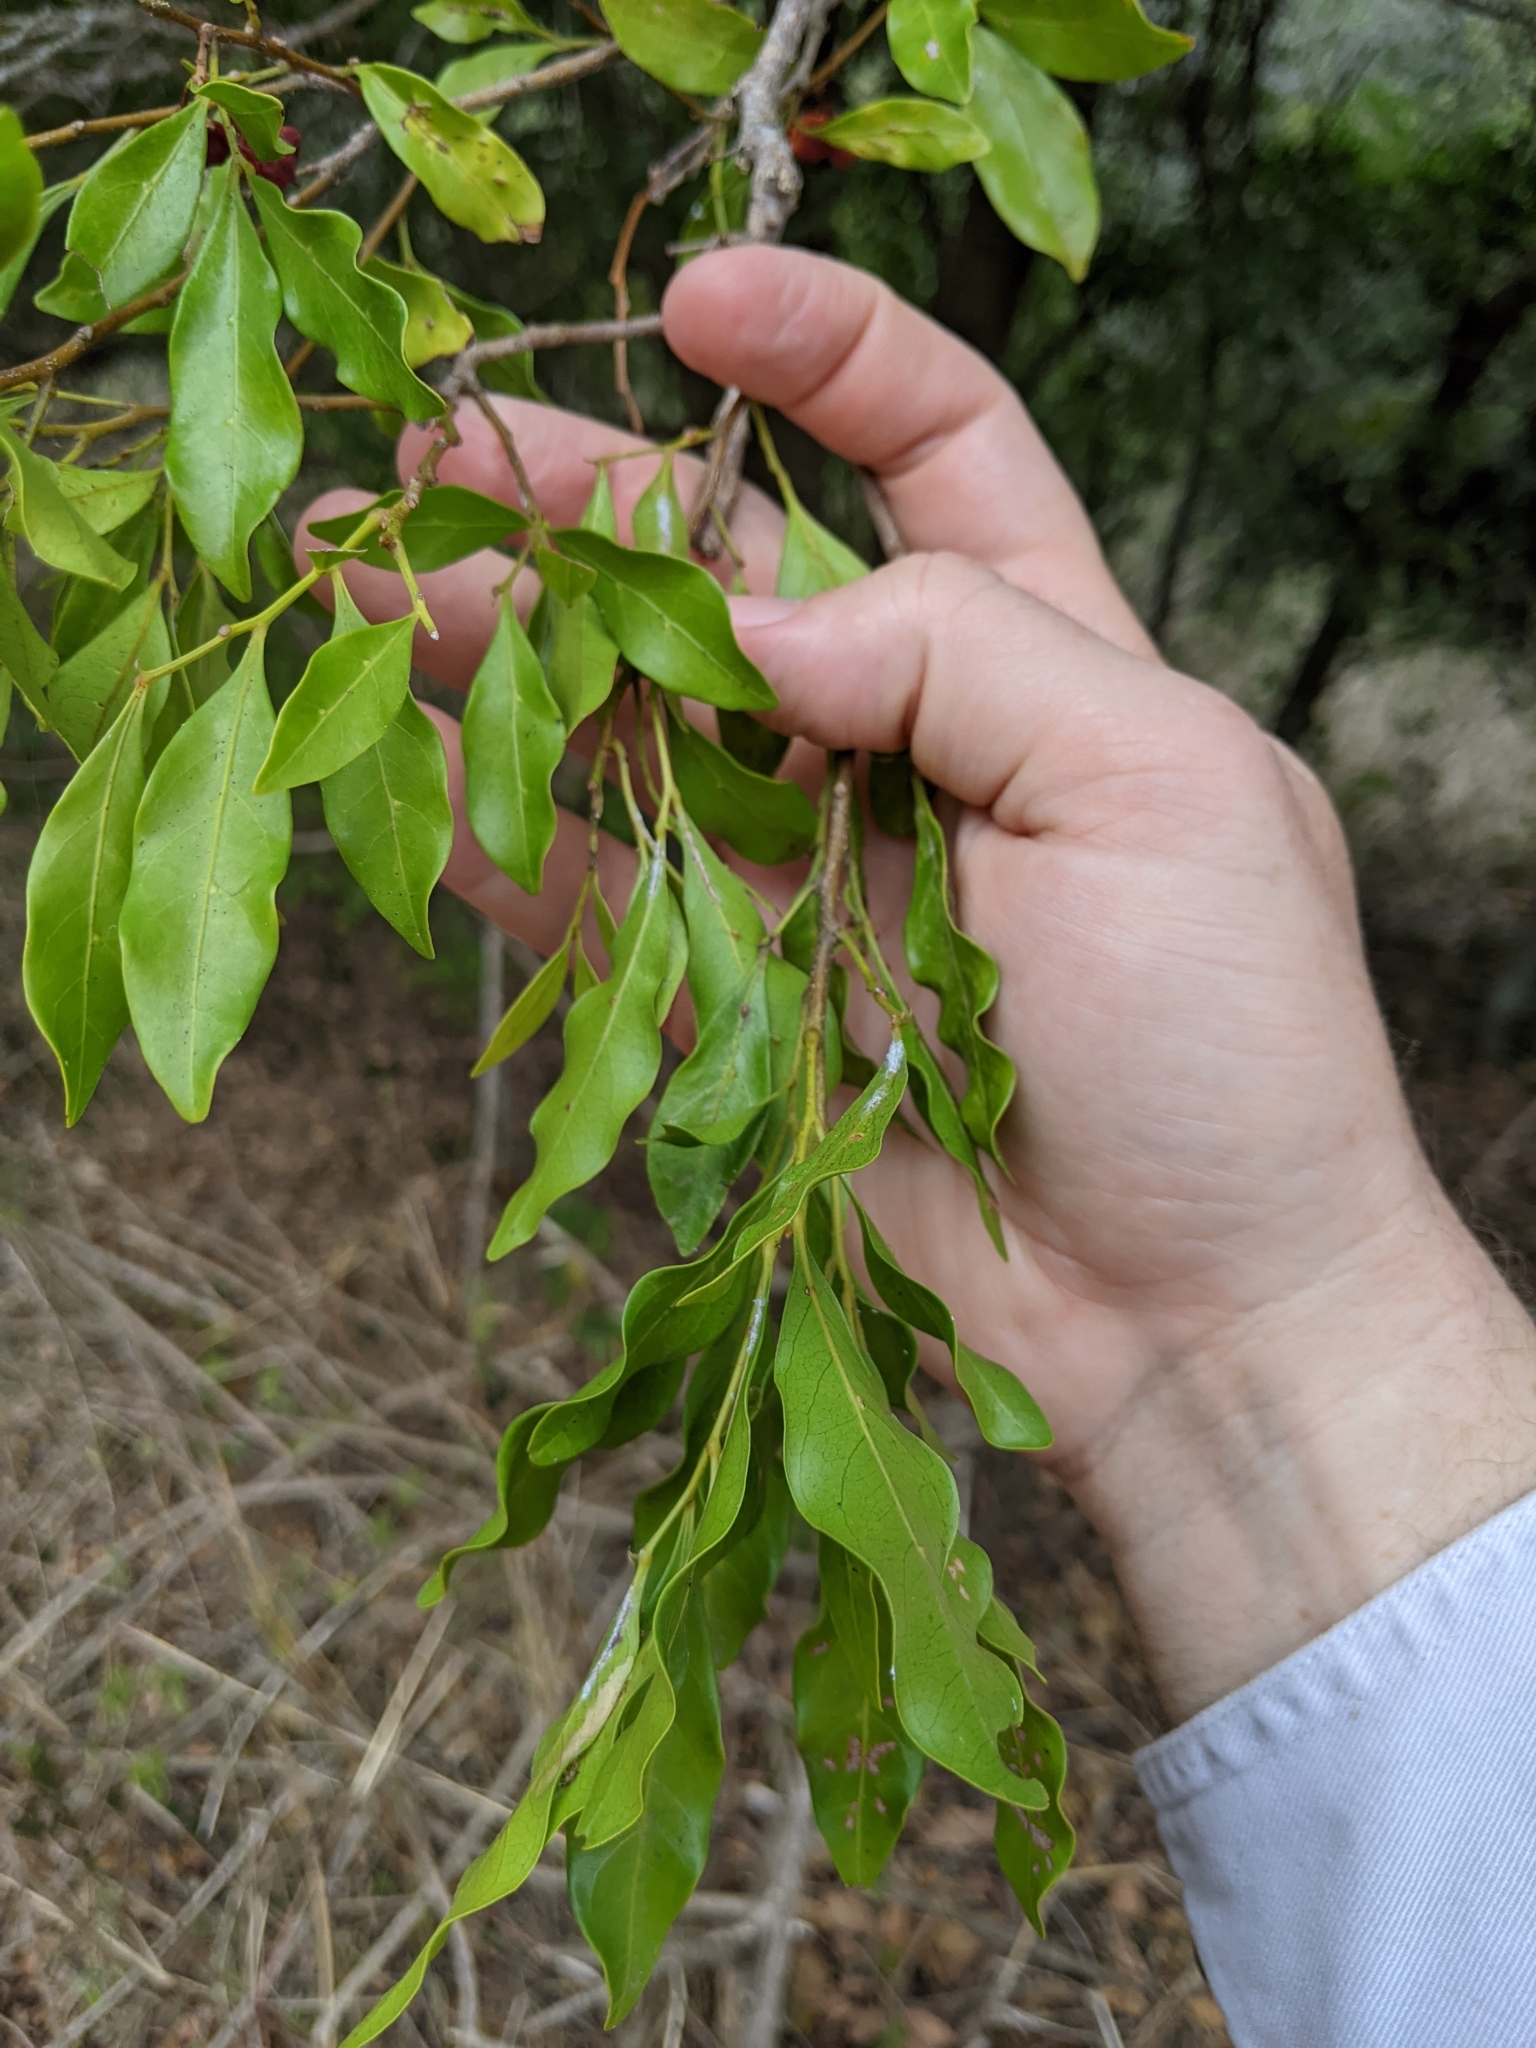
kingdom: Plantae
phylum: Tracheophyta
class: Magnoliopsida
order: Sapindales
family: Sapindaceae
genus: Toechima
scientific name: Toechima tenax
